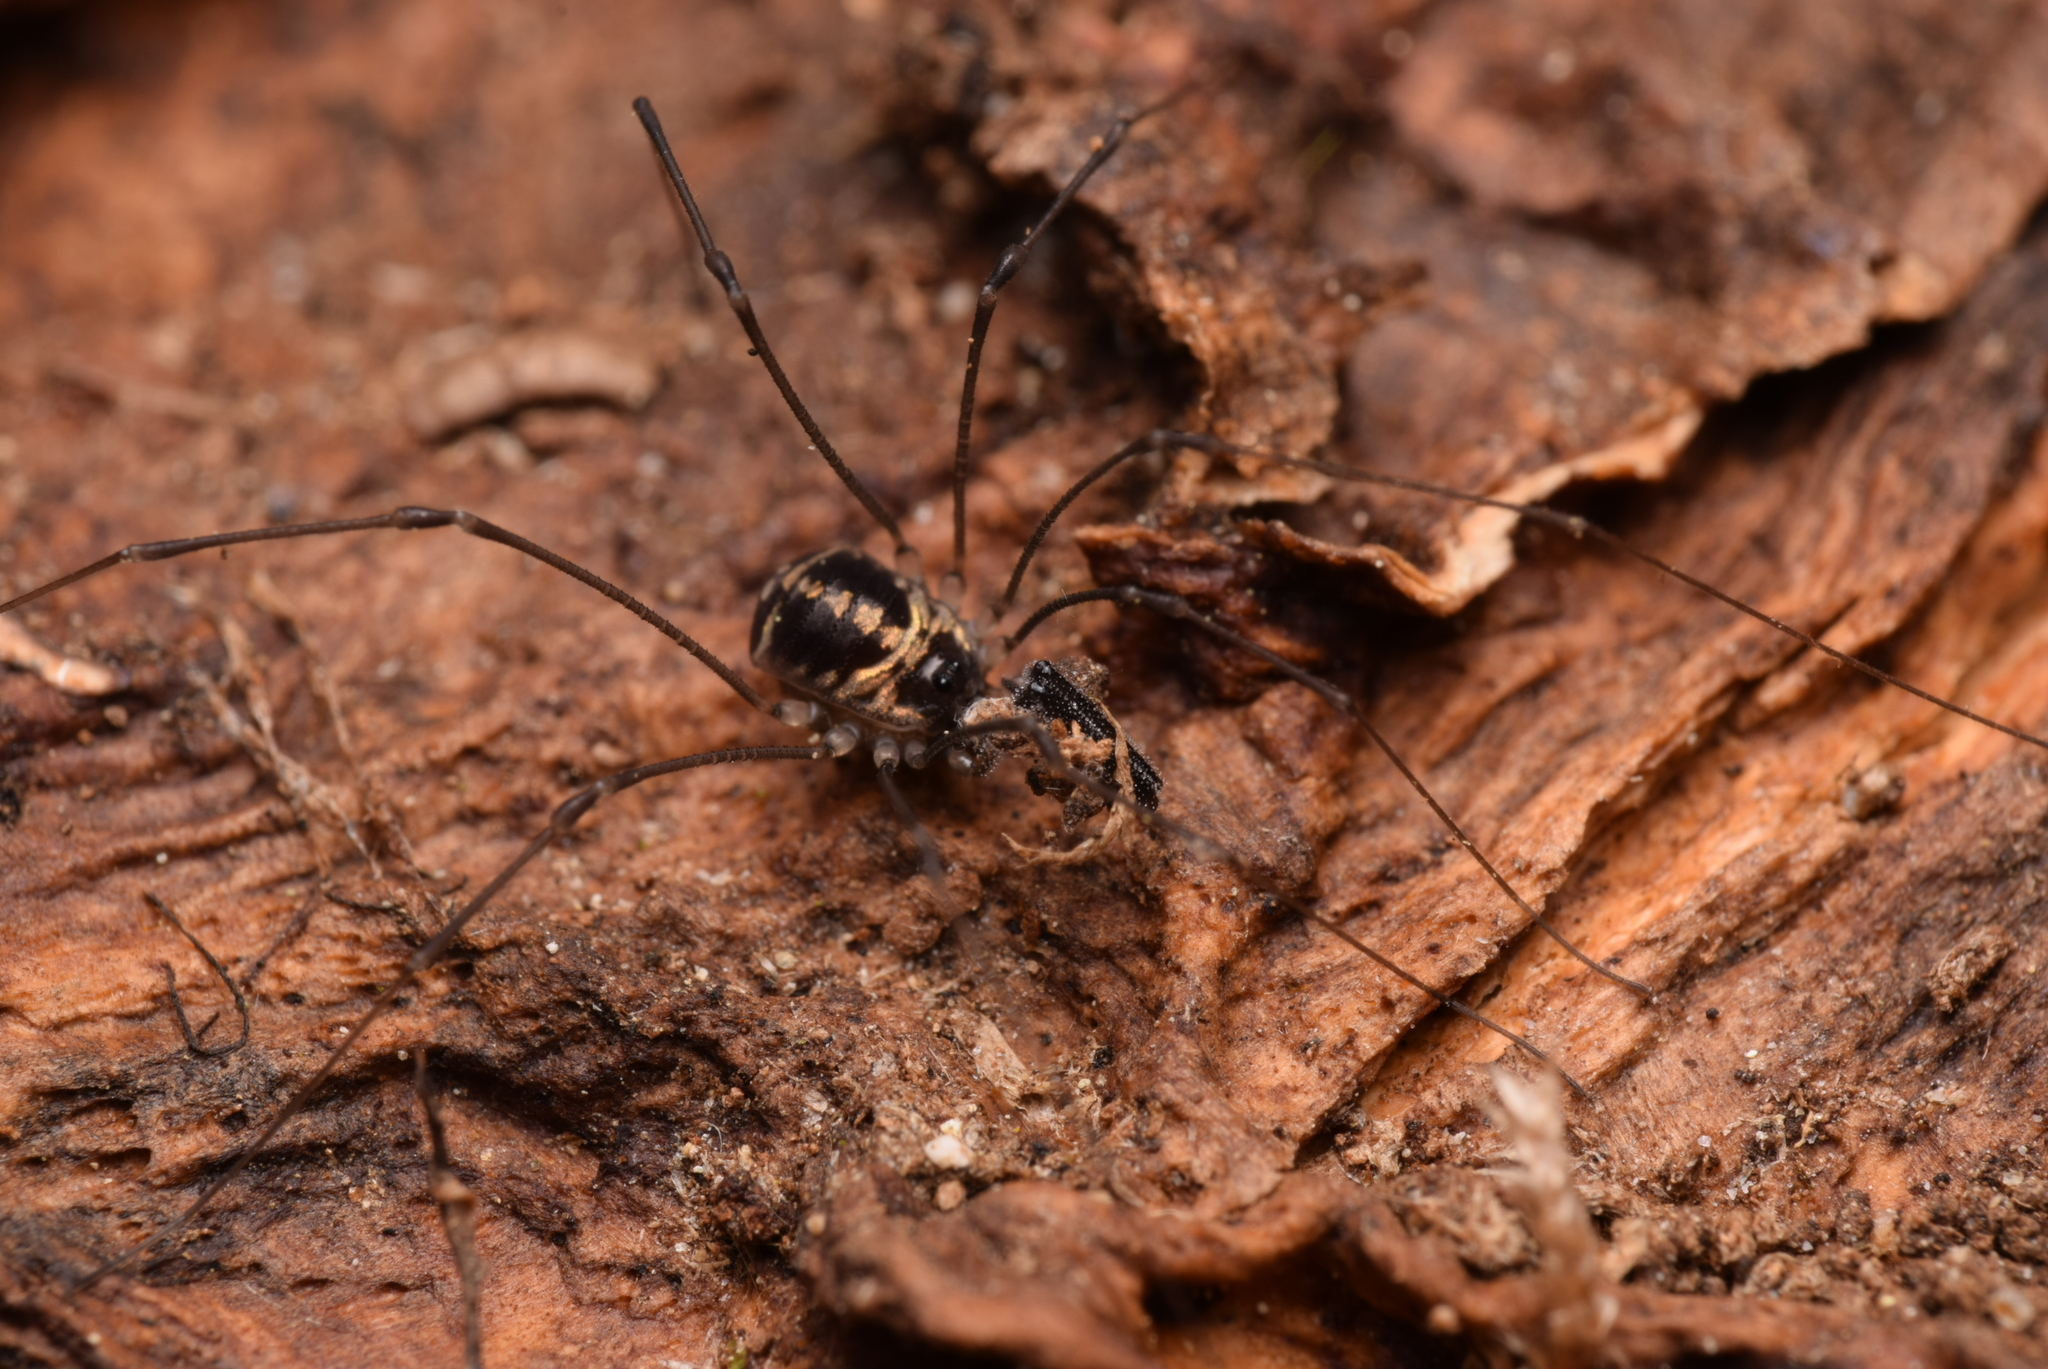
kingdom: Animalia
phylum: Arthropoda
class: Arachnida
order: Opiliones
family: Nemastomatidae
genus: Mitostoma
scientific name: Mitostoma pyrenaeum
